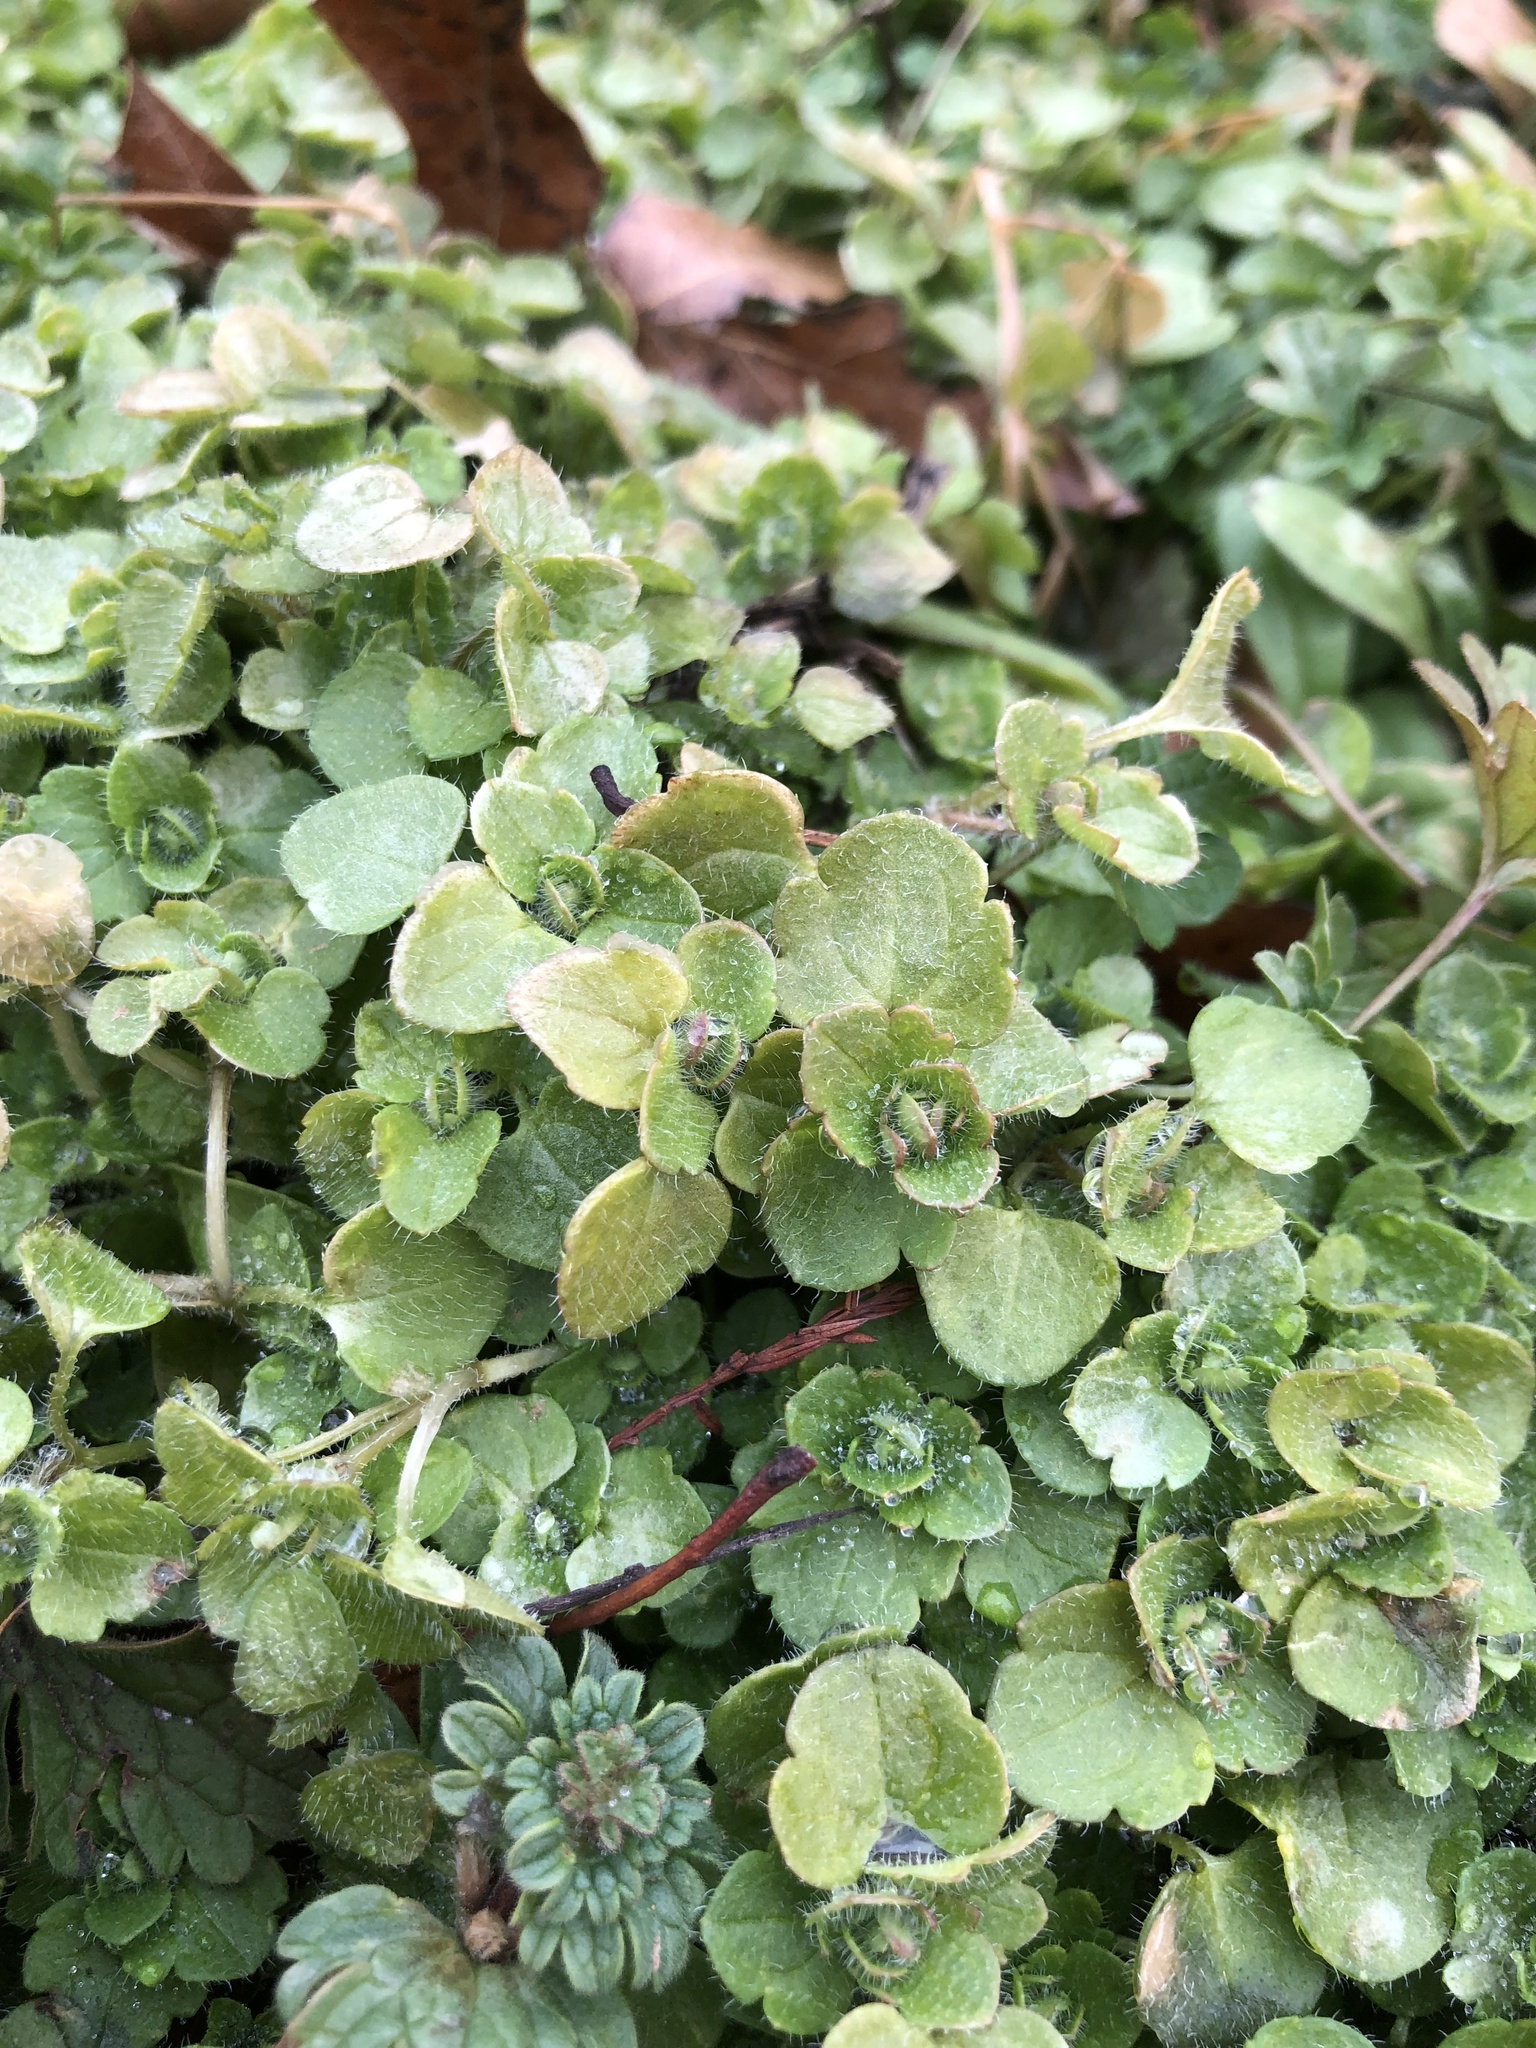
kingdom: Plantae
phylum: Tracheophyta
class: Magnoliopsida
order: Lamiales
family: Plantaginaceae
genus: Veronica
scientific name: Veronica hederifolia
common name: Ivy-leaved speedwell
